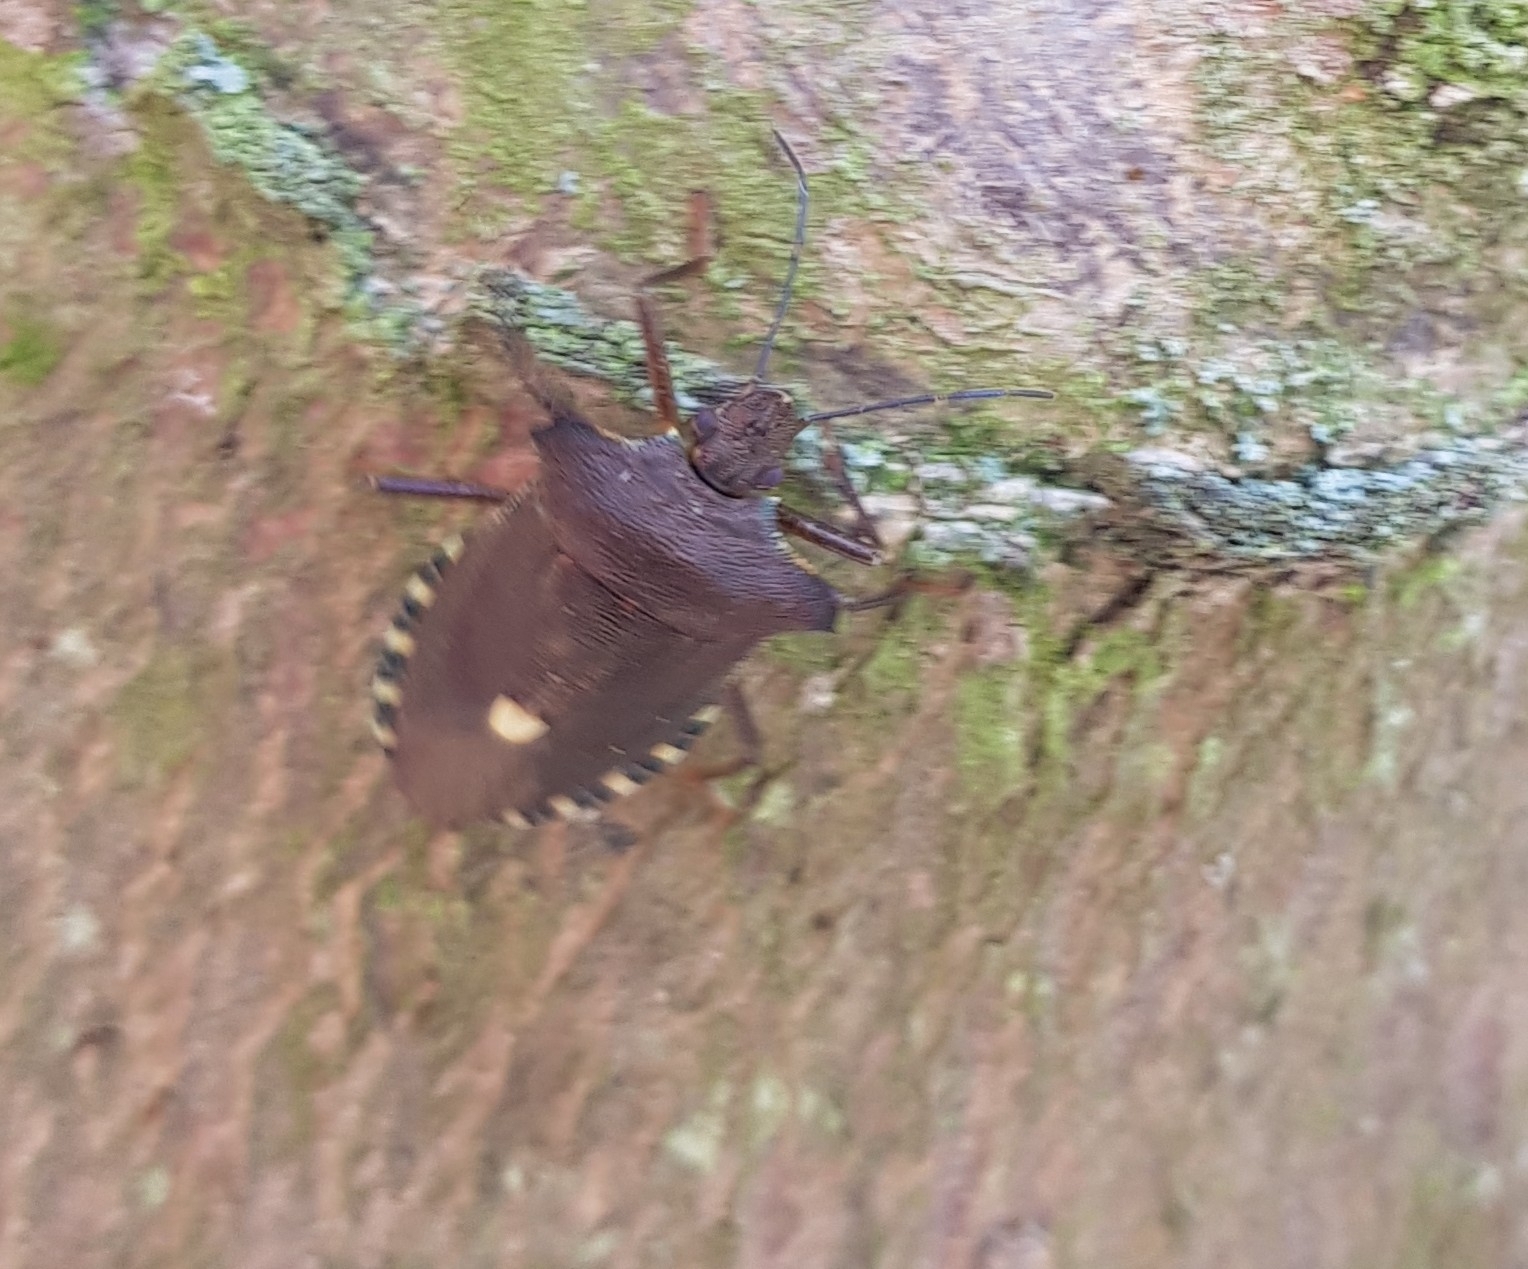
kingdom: Animalia
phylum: Arthropoda
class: Insecta
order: Hemiptera
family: Pentatomidae
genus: Pentatoma
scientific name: Pentatoma rufipes
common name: Forest bug
